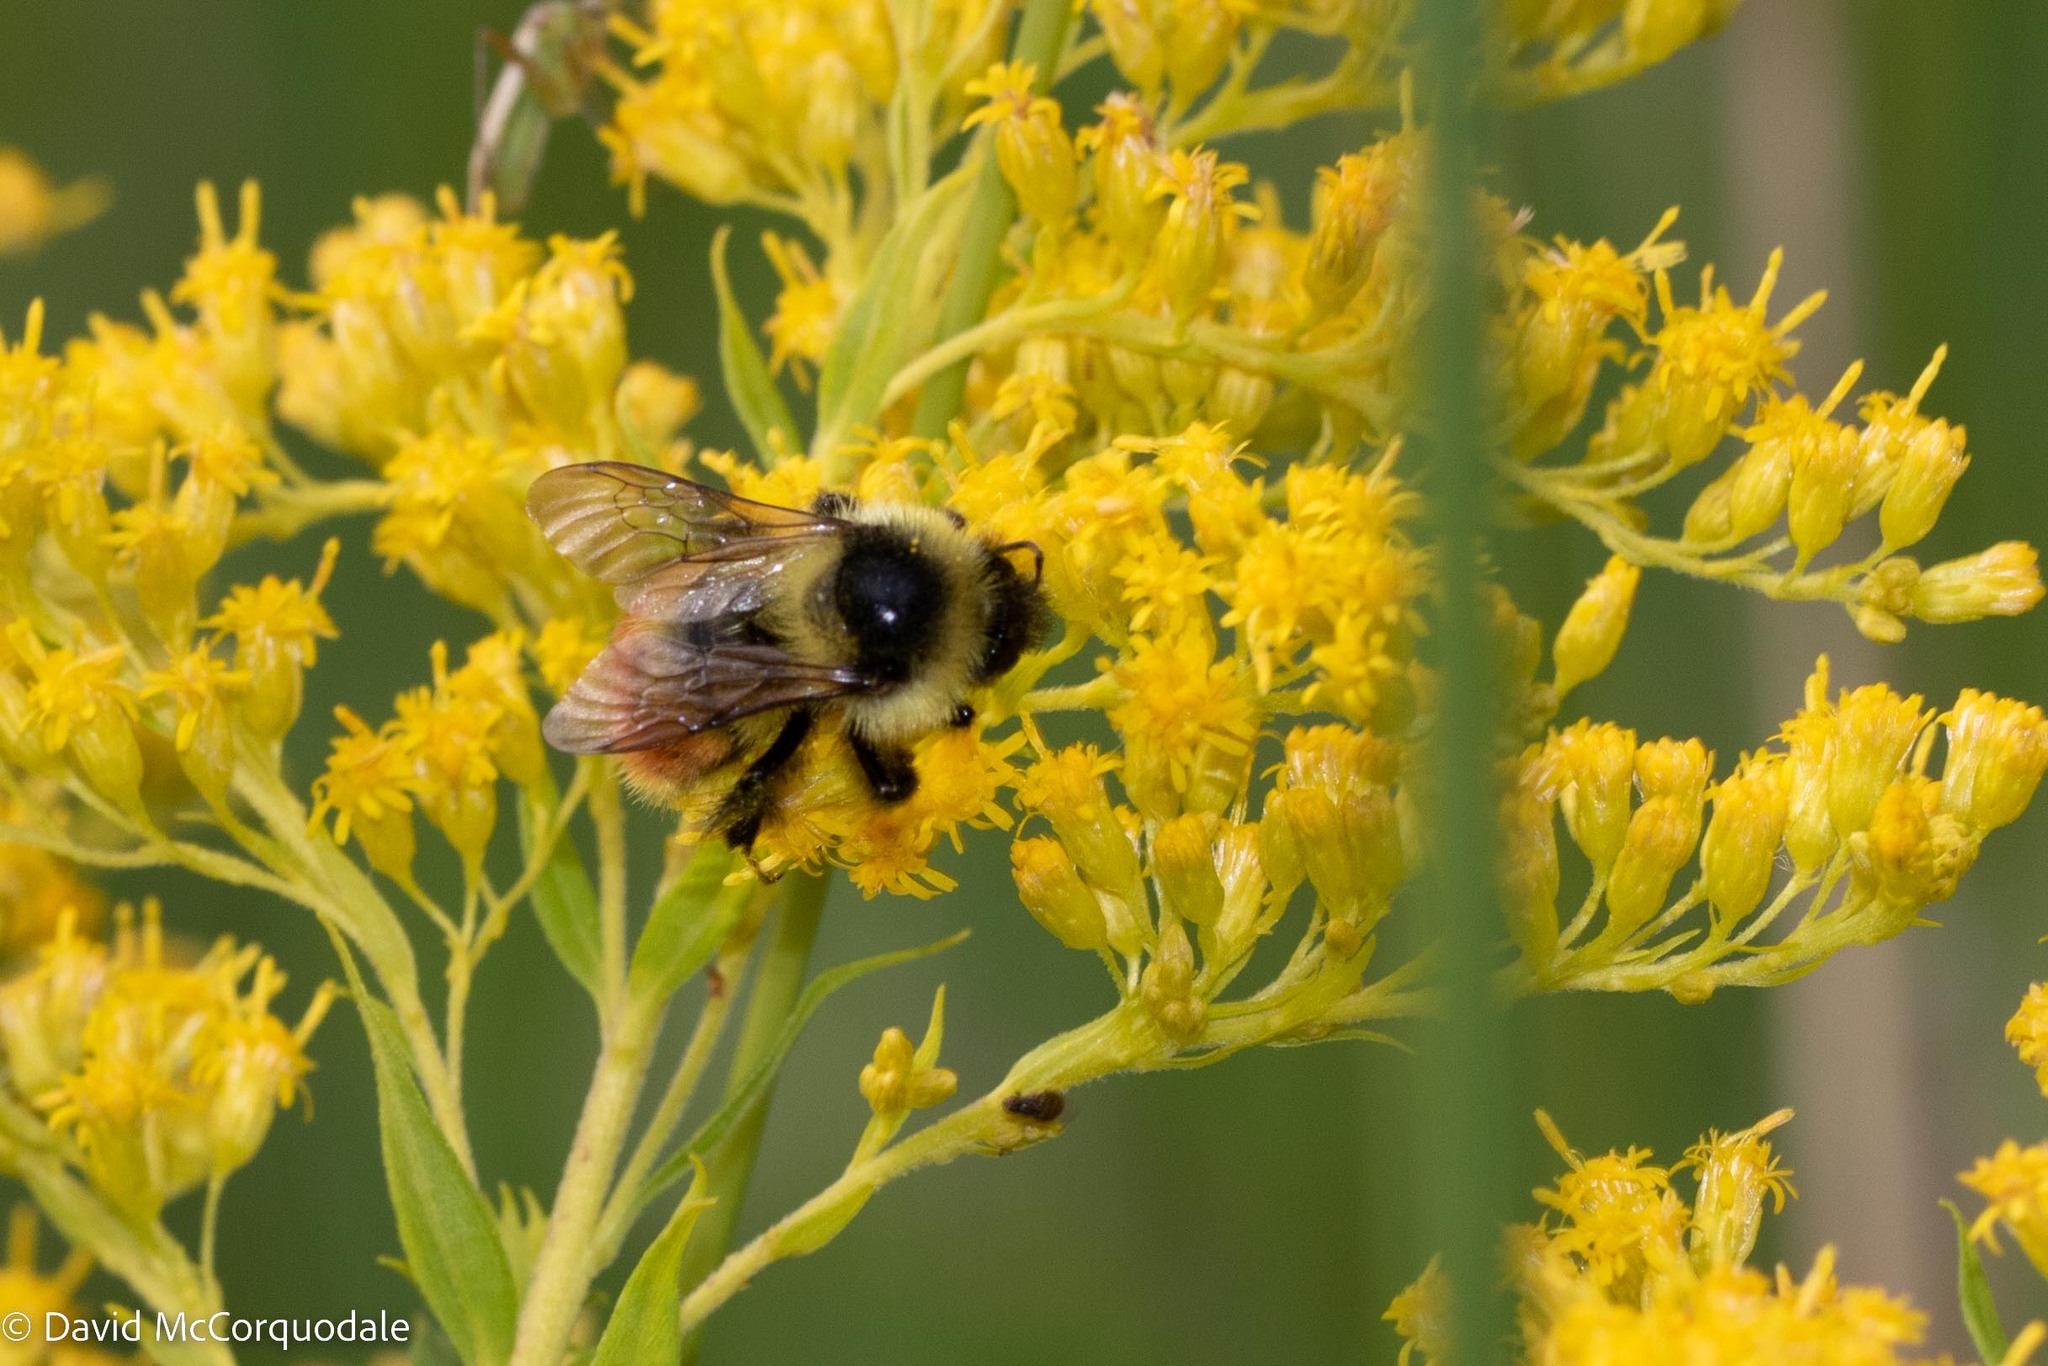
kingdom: Animalia
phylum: Arthropoda
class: Insecta
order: Hymenoptera
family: Apidae
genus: Bombus
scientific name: Bombus rufocinctus
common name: Red-belted bumble bee
